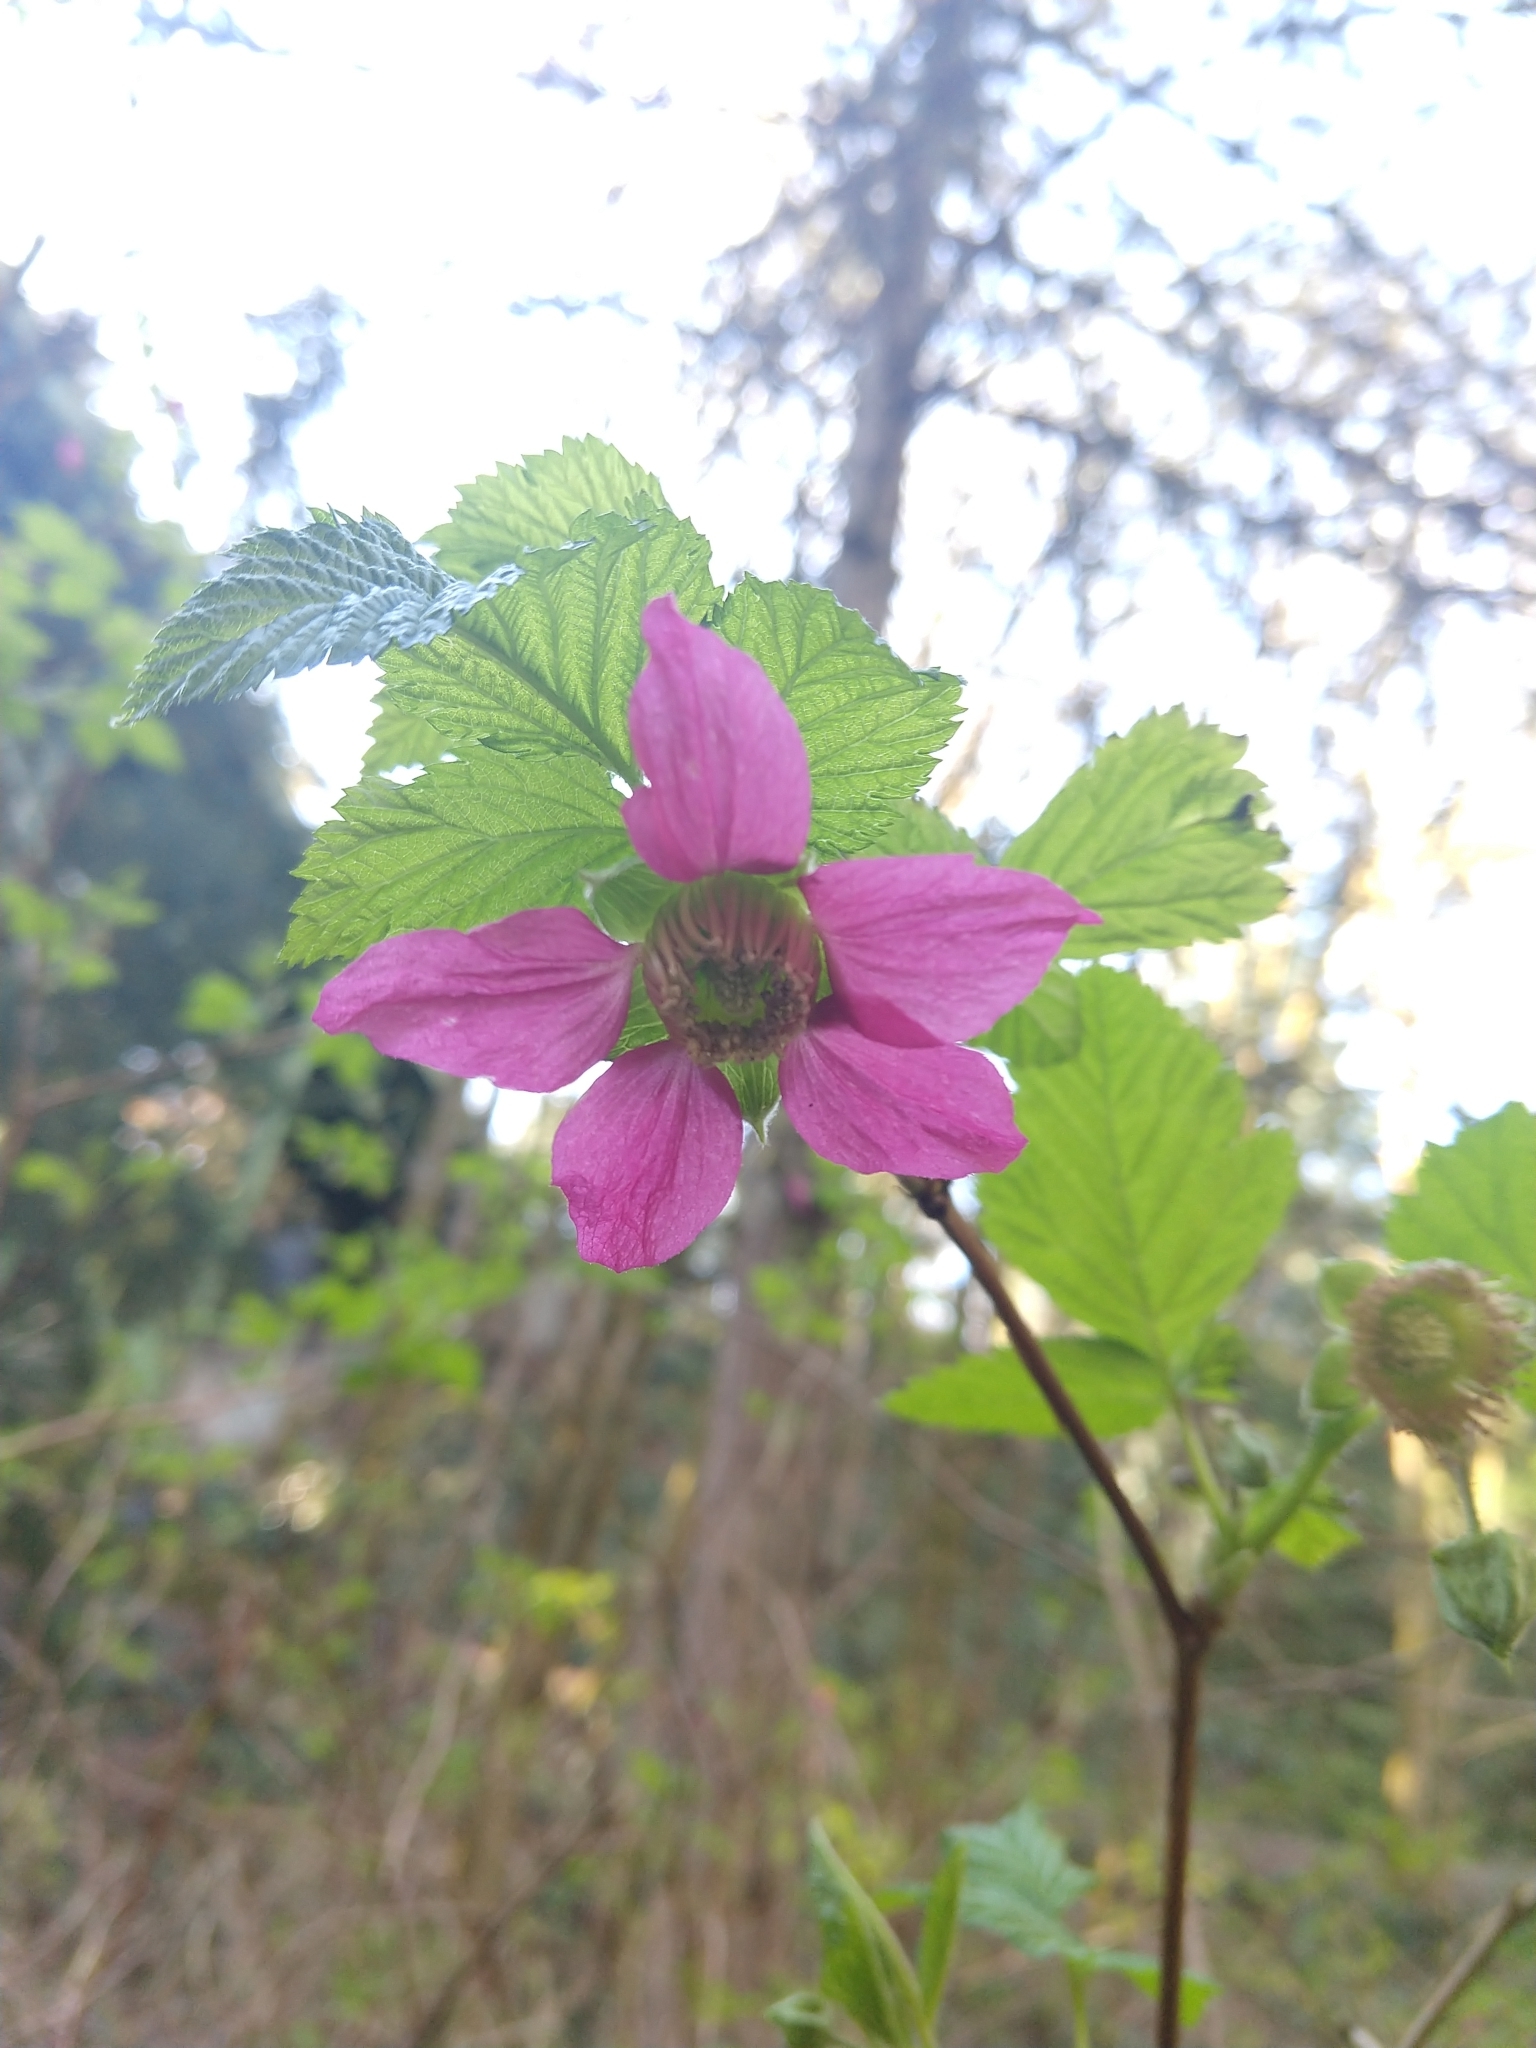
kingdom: Plantae
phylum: Tracheophyta
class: Magnoliopsida
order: Rosales
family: Rosaceae
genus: Rubus
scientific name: Rubus spectabilis
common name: Salmonberry
